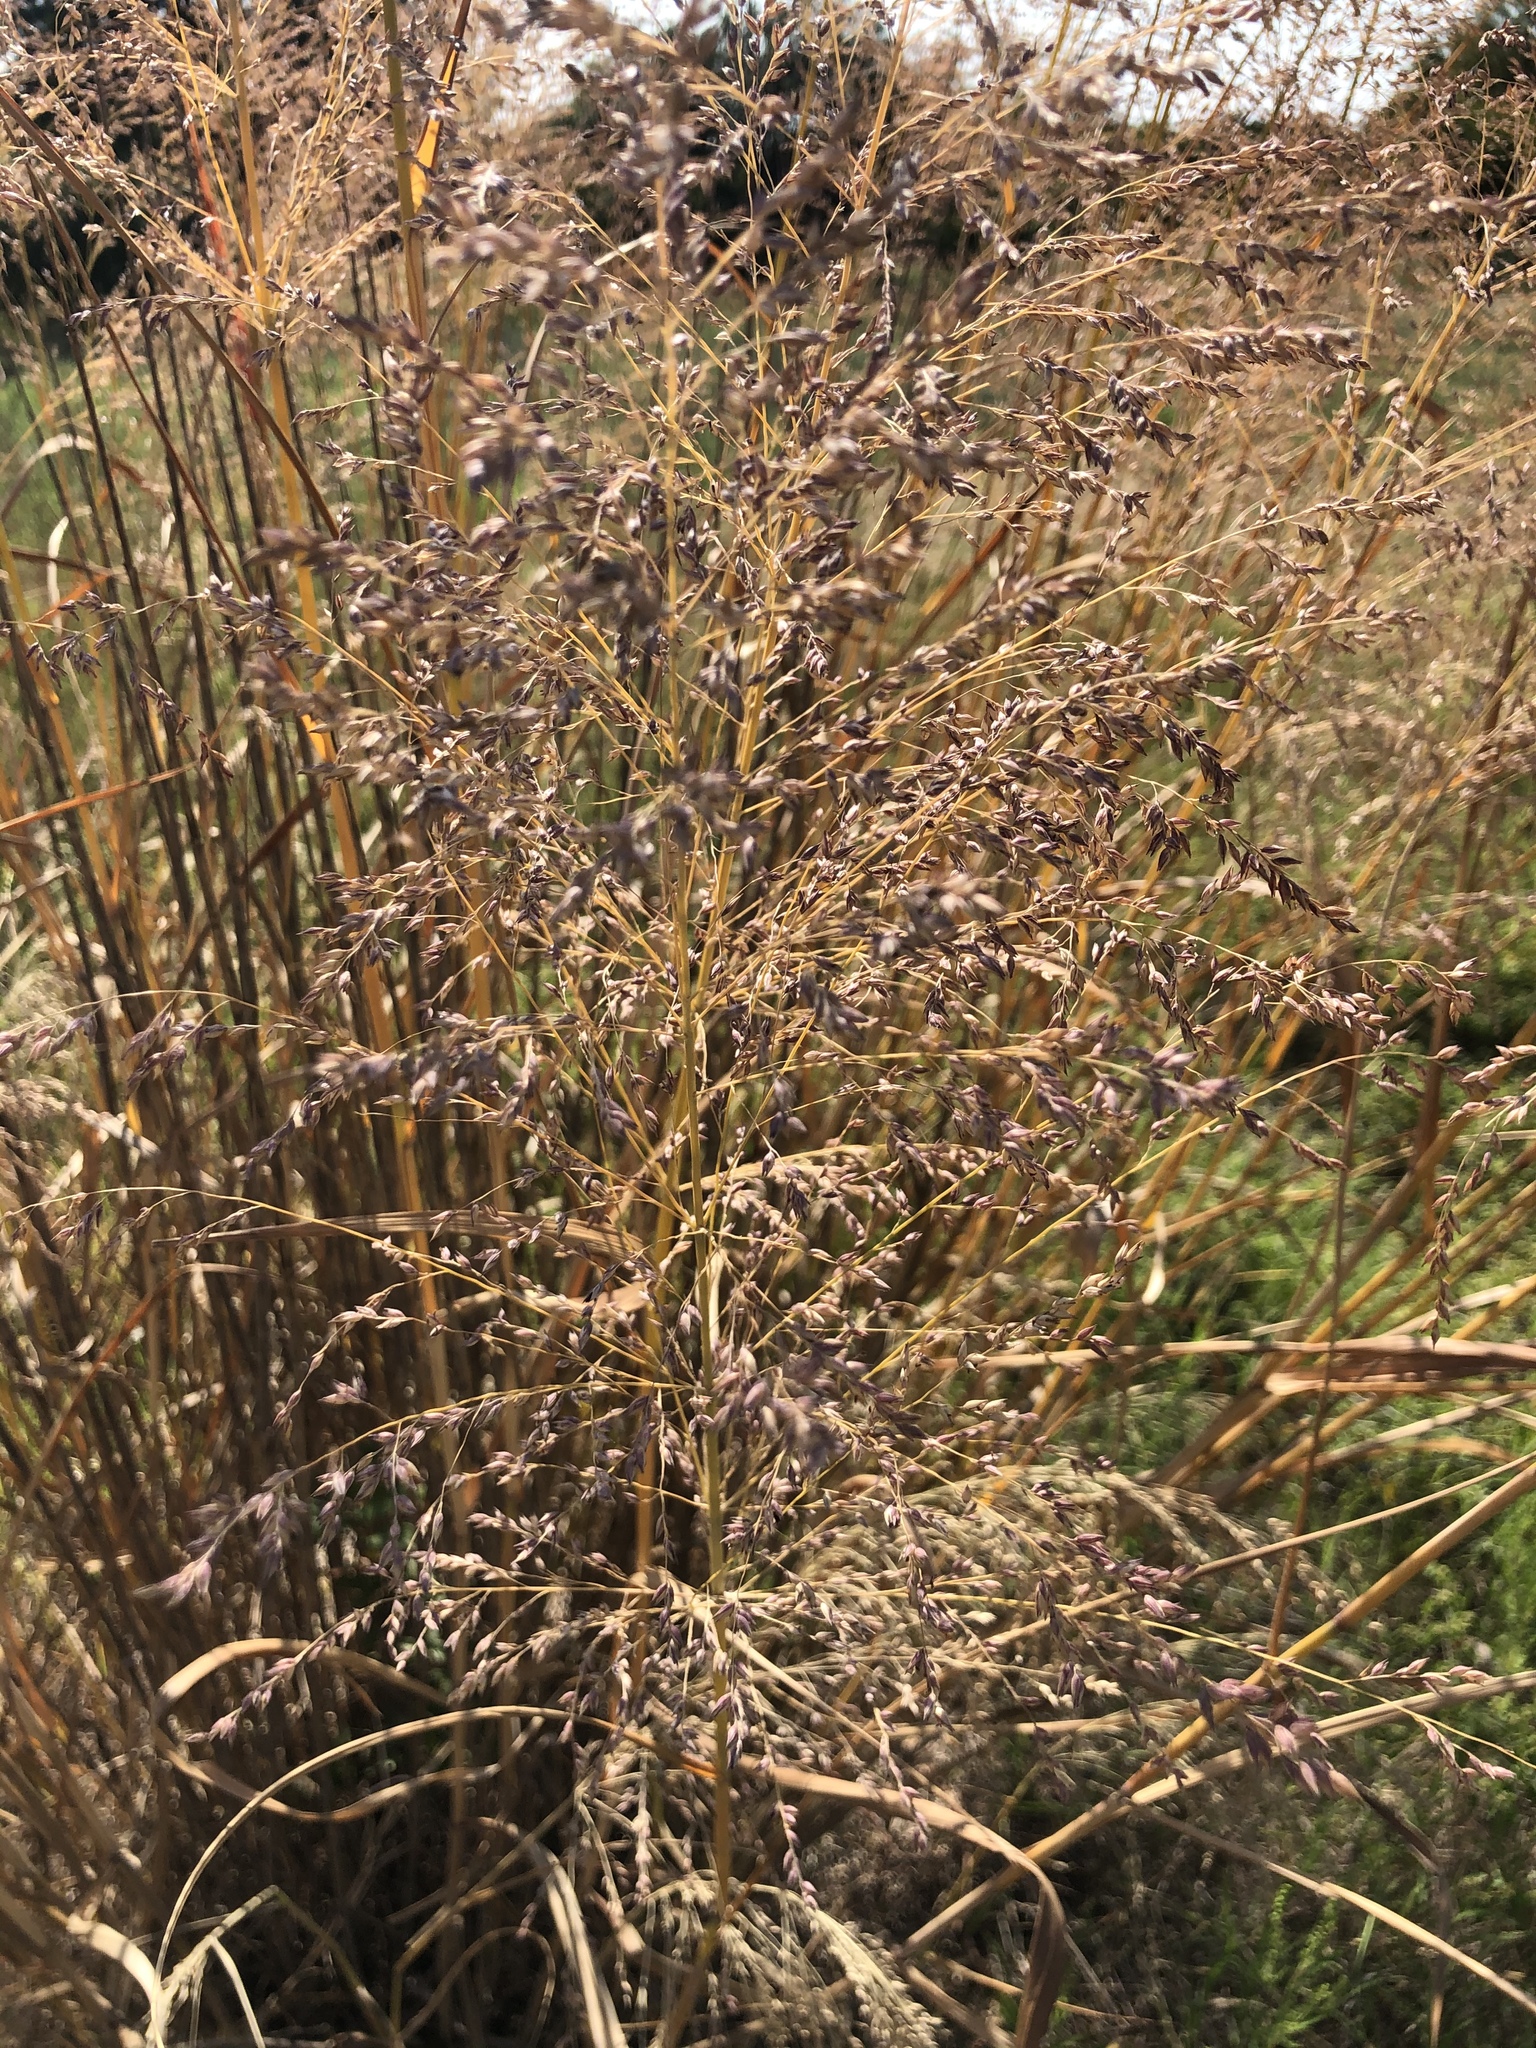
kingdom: Plantae
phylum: Tracheophyta
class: Liliopsida
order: Poales
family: Poaceae
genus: Panicum
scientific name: Panicum virgatum
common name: Switchgrass
